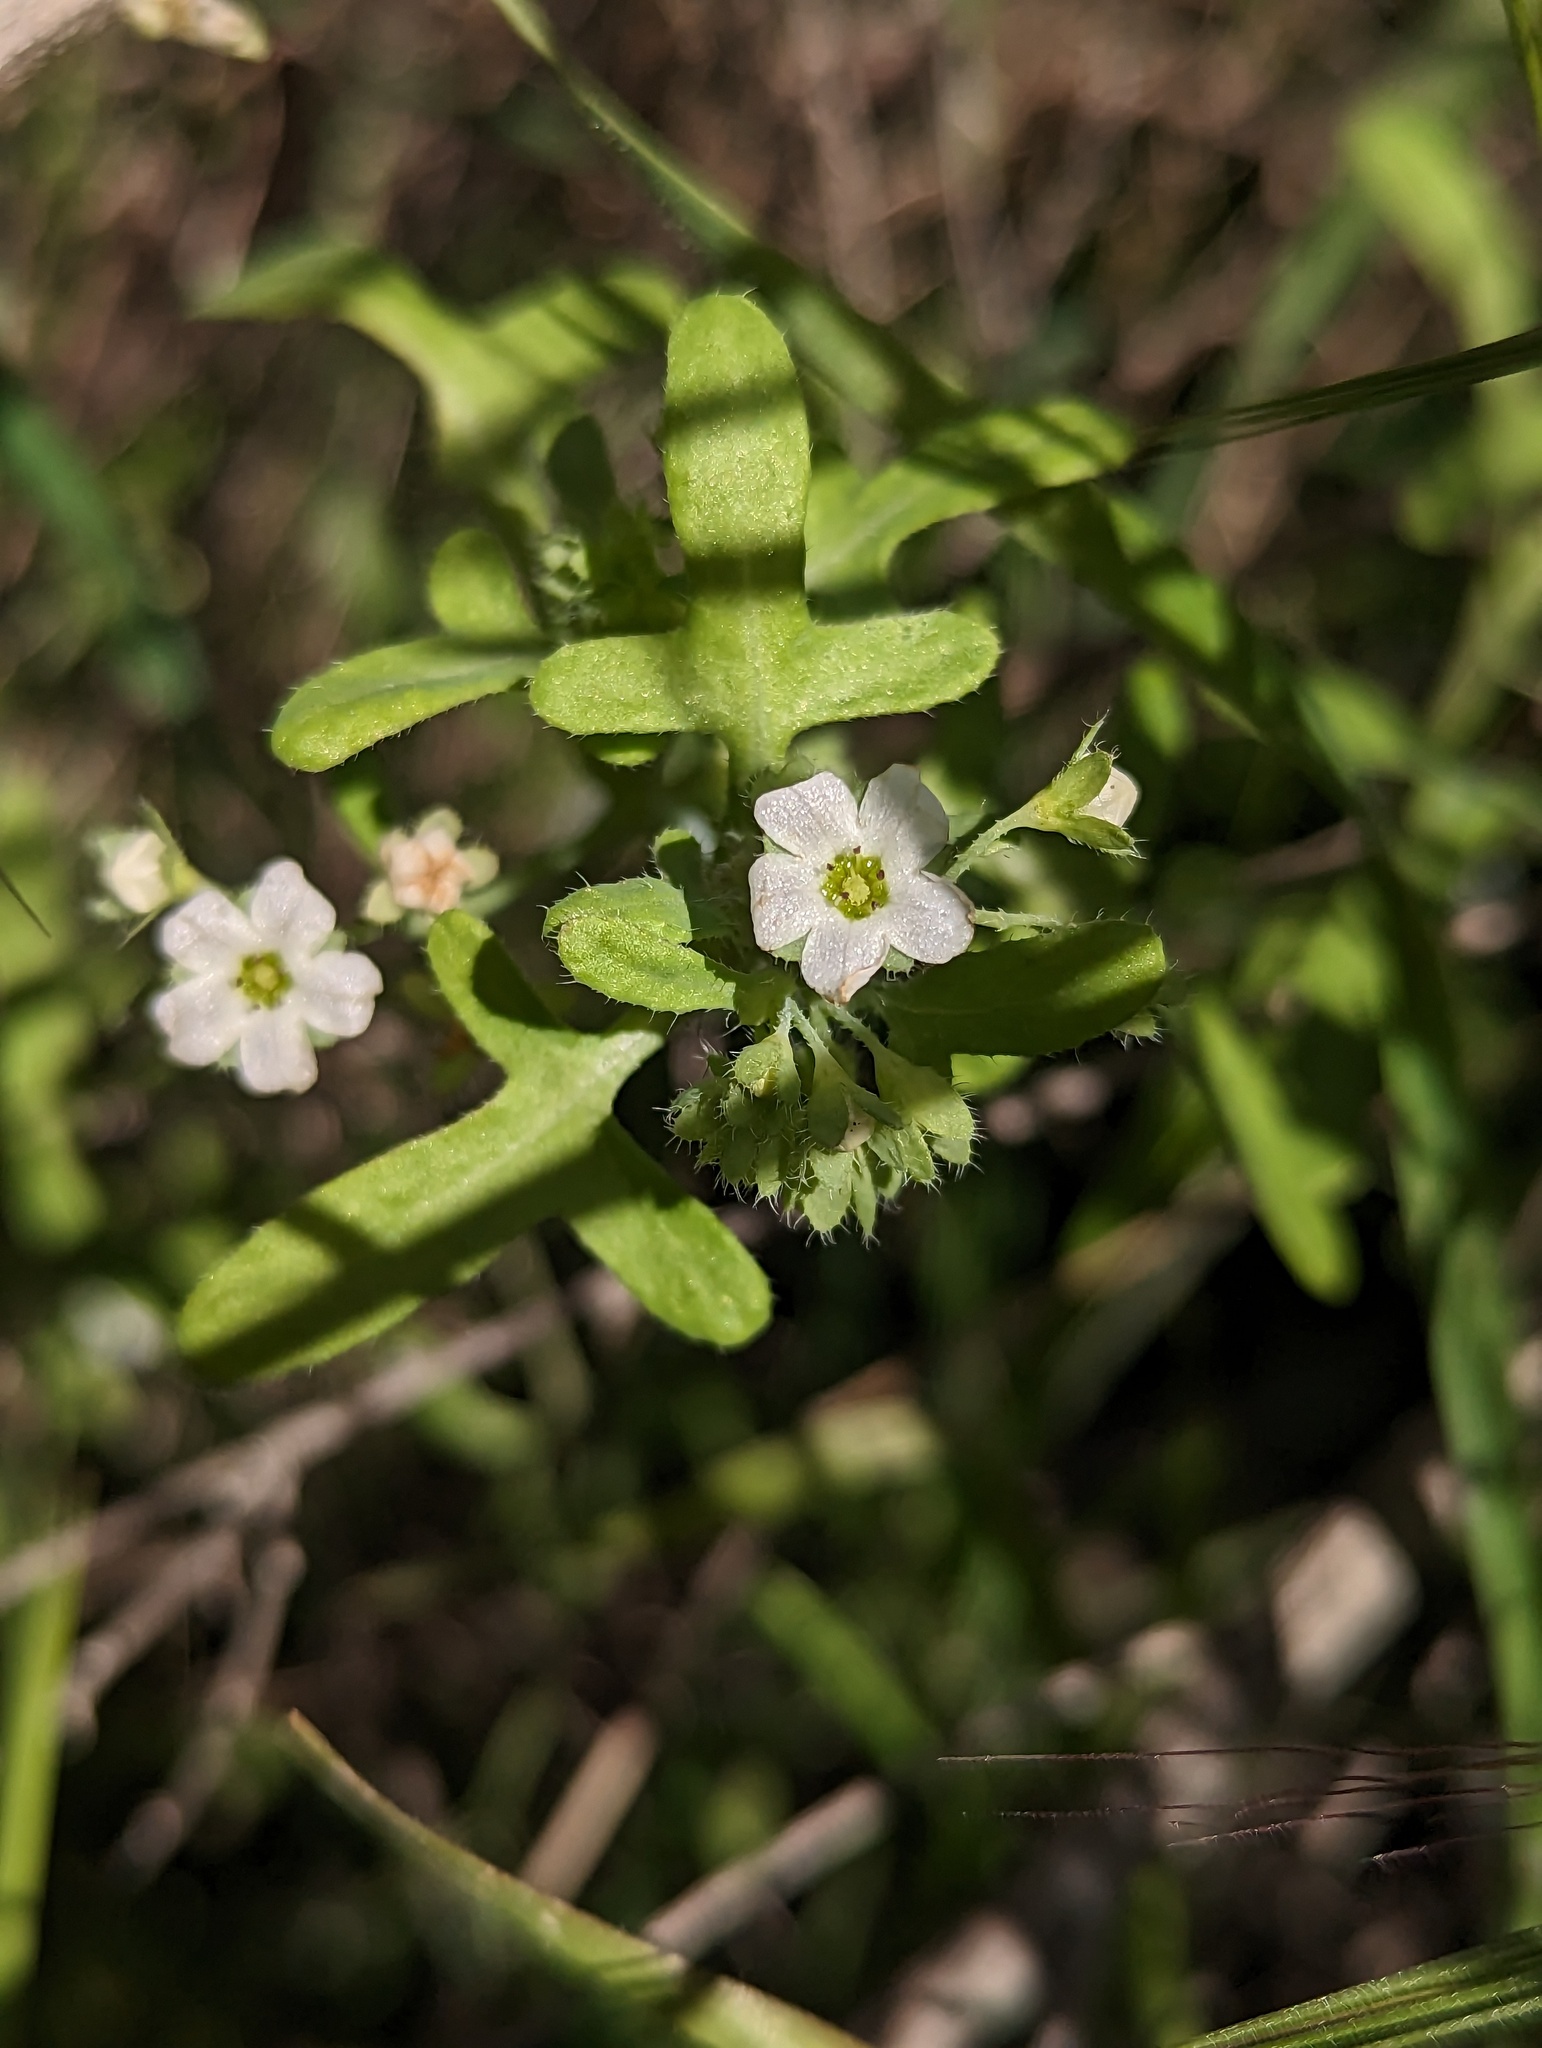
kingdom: Plantae
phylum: Tracheophyta
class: Magnoliopsida
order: Boraginales
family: Hydrophyllaceae
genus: Pholistoma
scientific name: Pholistoma membranaceum
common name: White fiesta-flower
